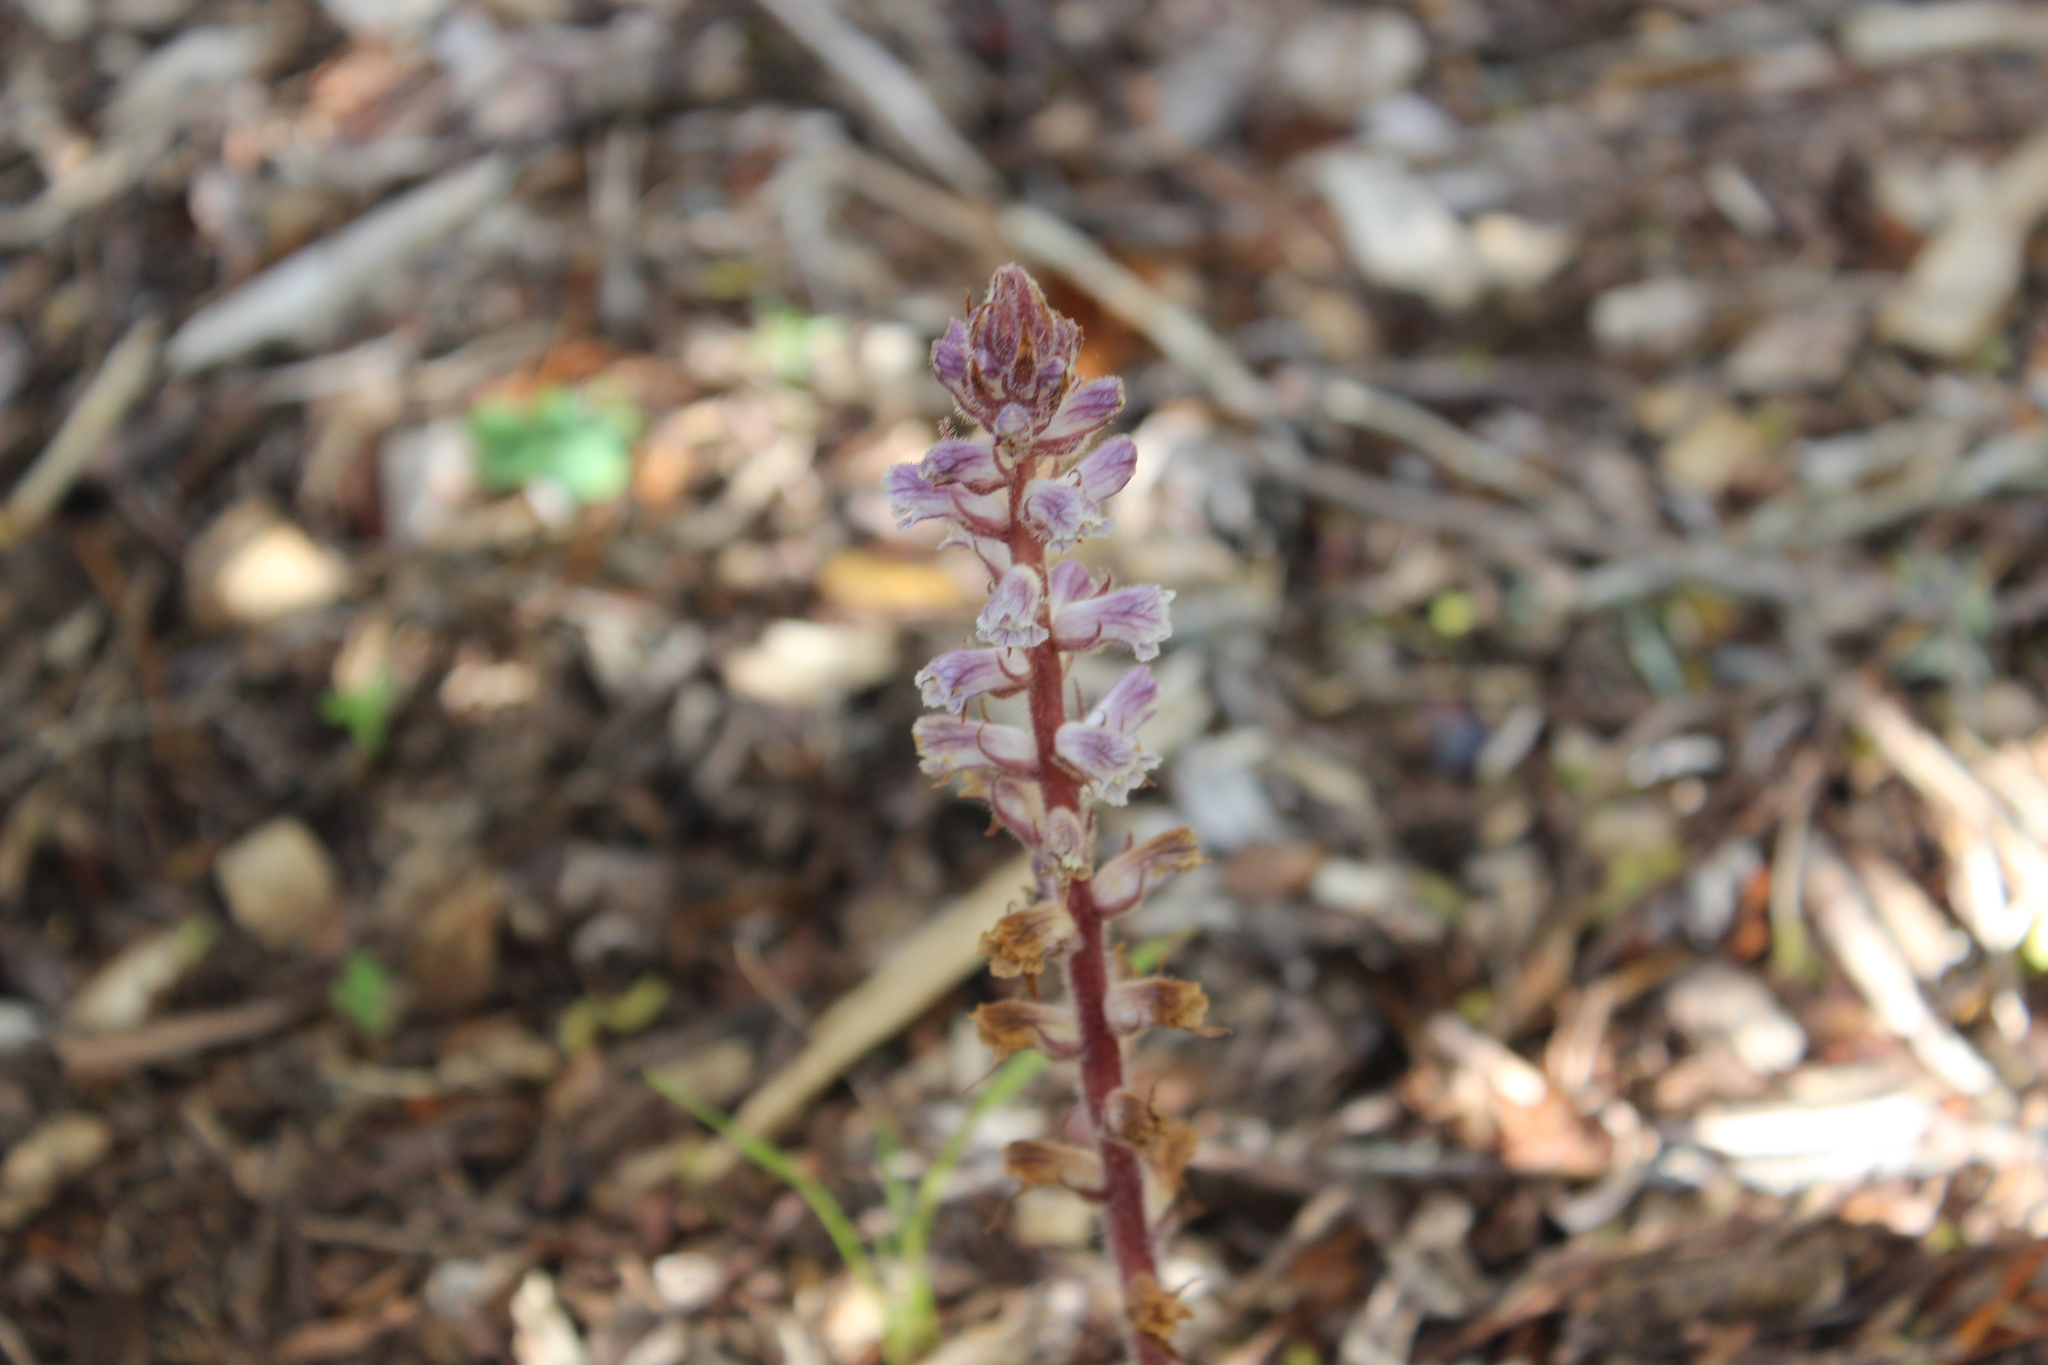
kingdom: Plantae
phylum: Tracheophyta
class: Magnoliopsida
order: Lamiales
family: Orobanchaceae
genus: Orobanche
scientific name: Orobanche minor
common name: Common broomrape
